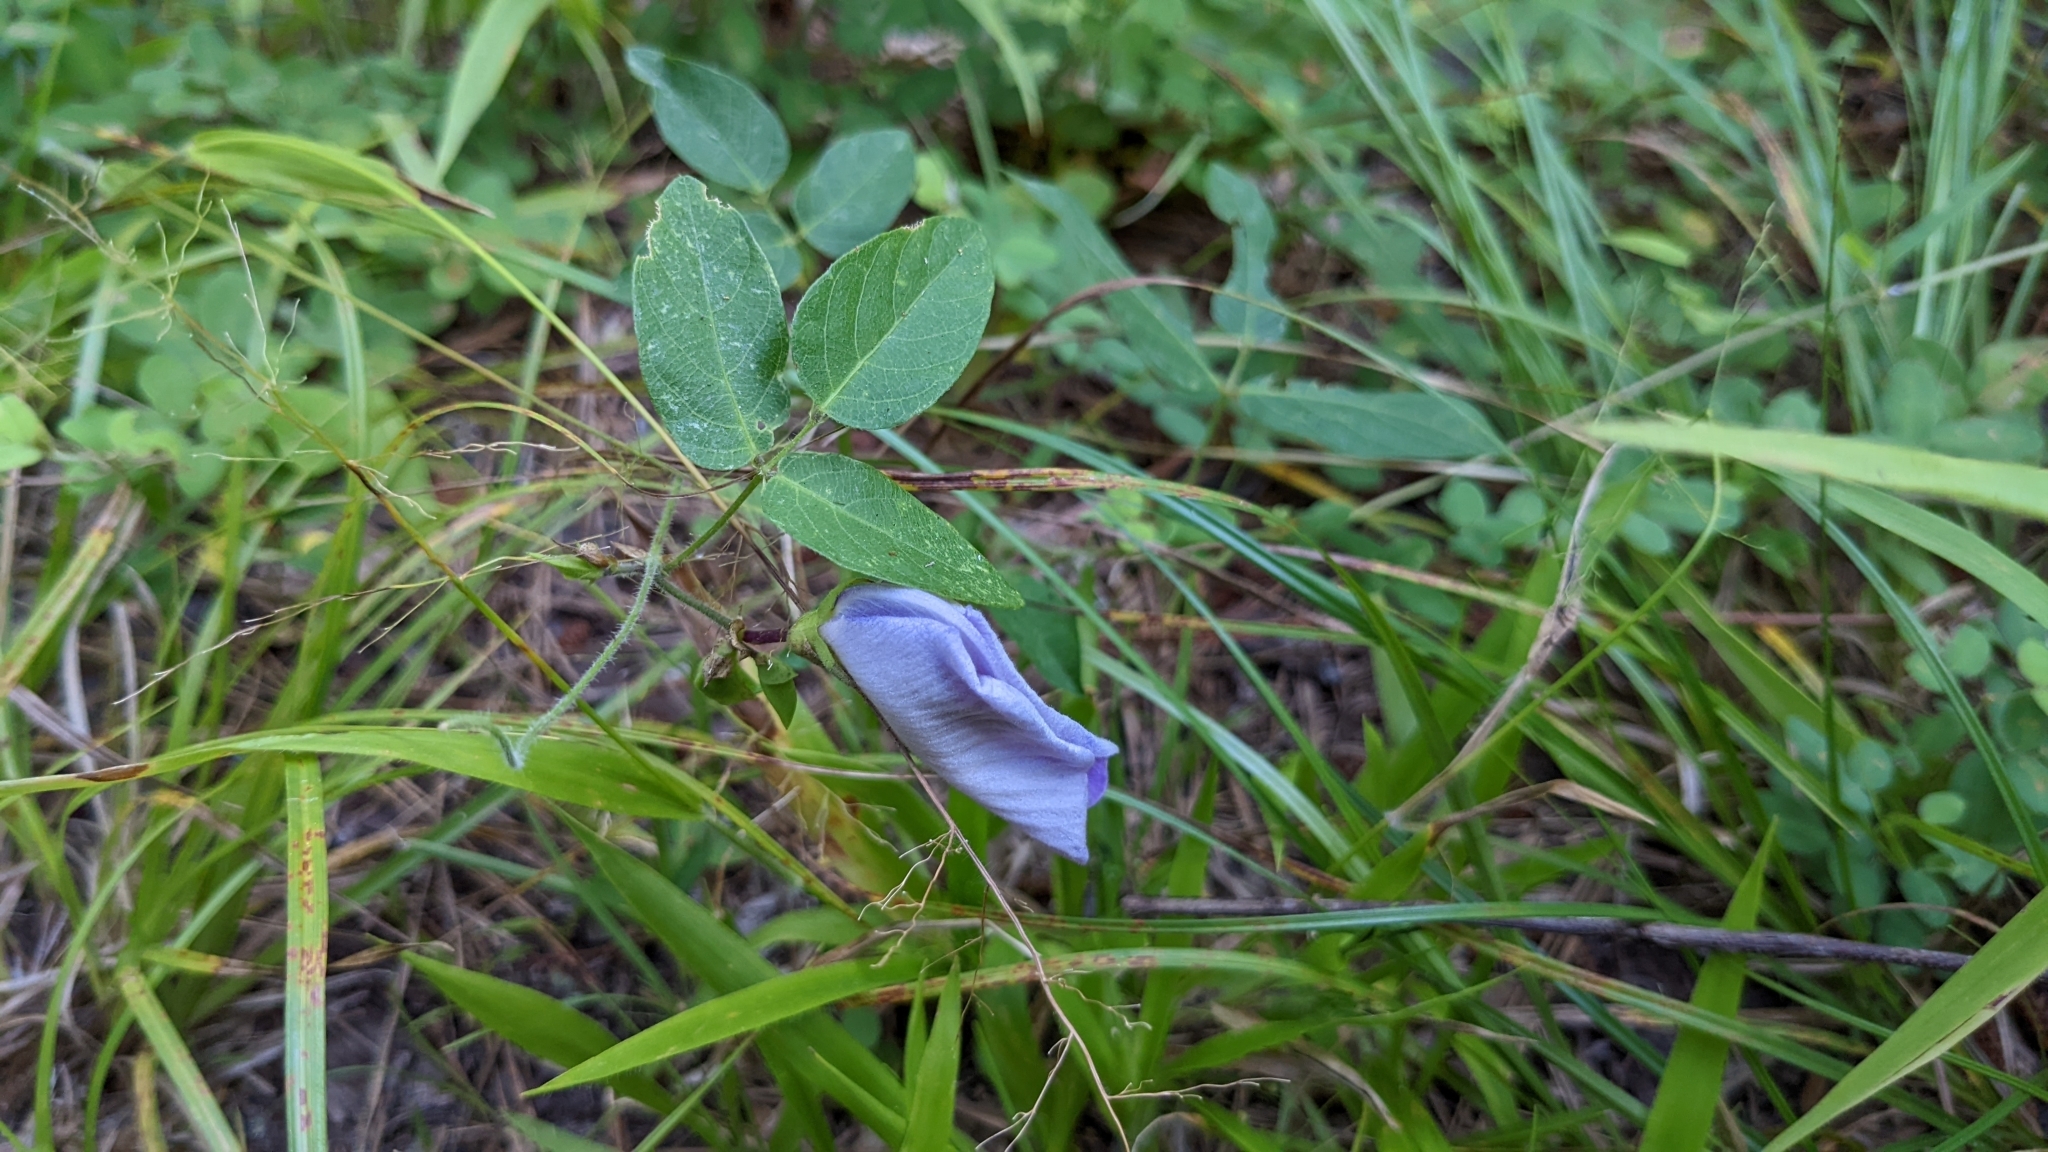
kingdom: Plantae
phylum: Tracheophyta
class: Magnoliopsida
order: Fabales
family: Fabaceae
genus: Centrosema
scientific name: Centrosema virginianum
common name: Butterfly-pea
